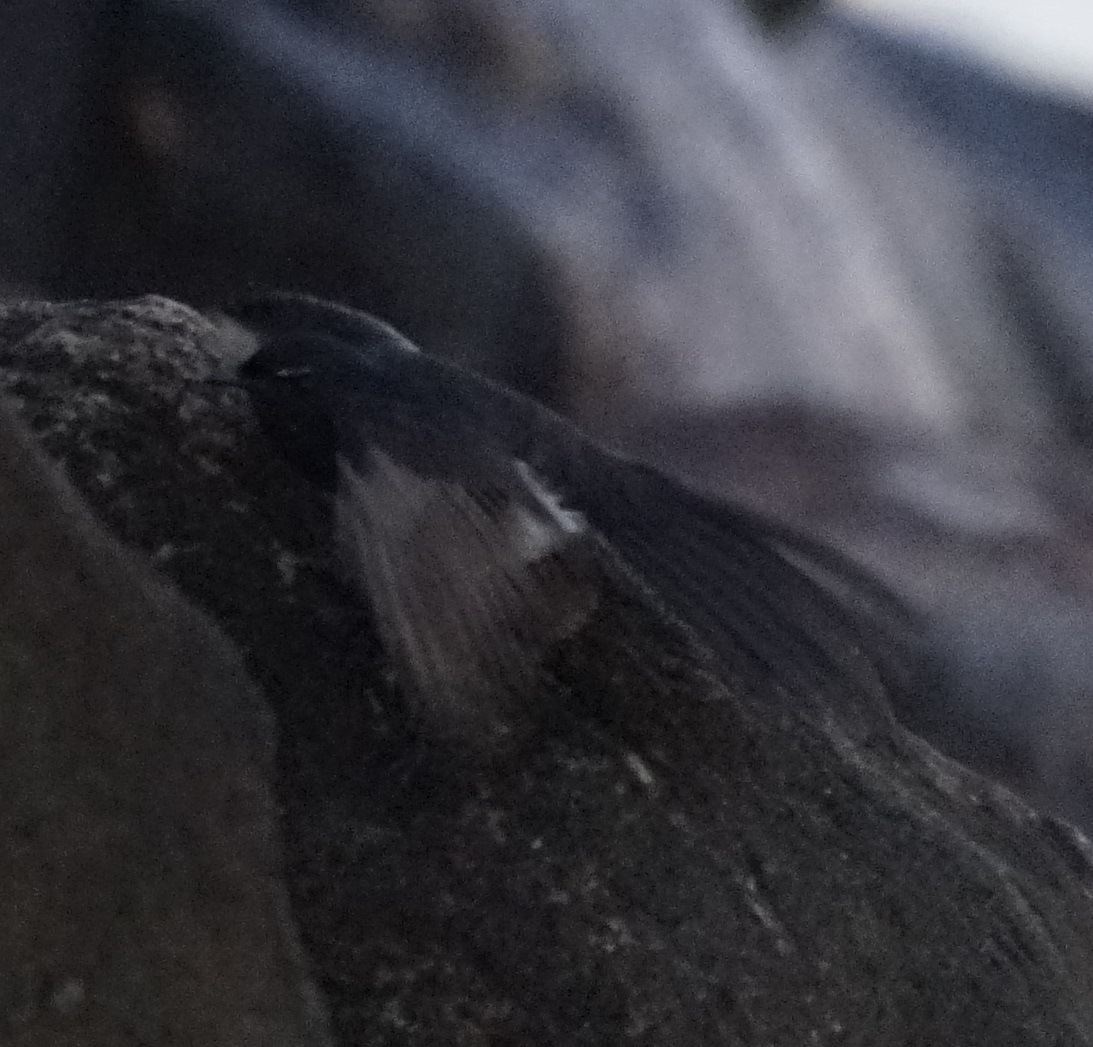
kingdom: Animalia
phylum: Chordata
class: Aves
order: Passeriformes
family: Rhipiduridae
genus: Rhipidura
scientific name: Rhipidura leucophrys
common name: Willie wagtail
